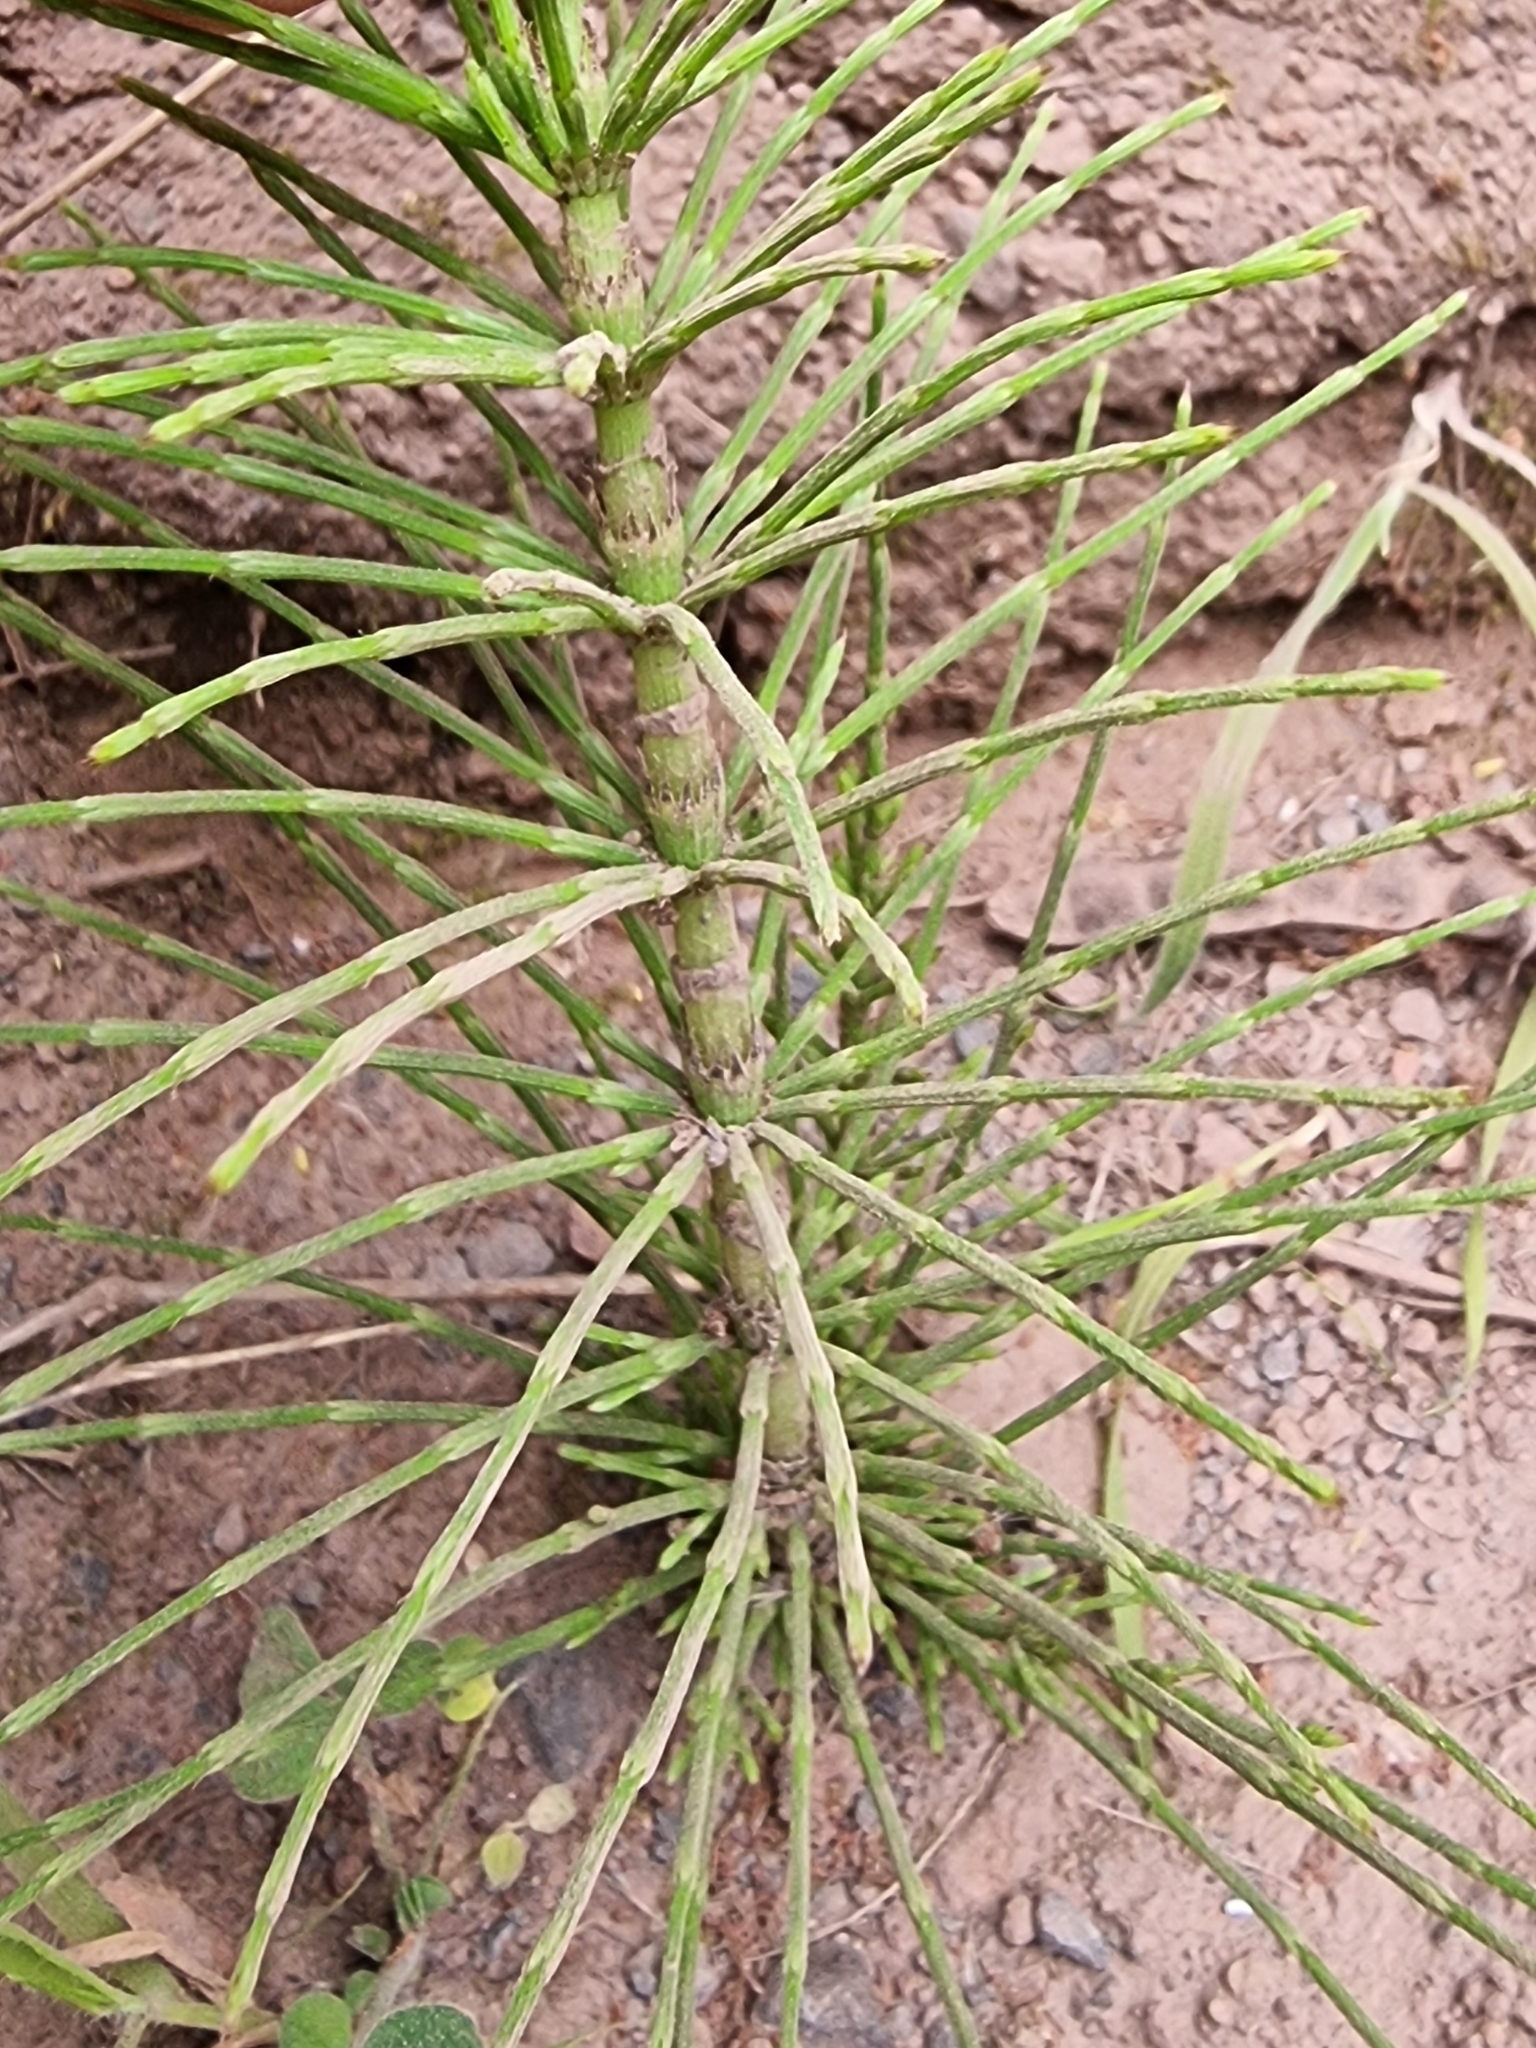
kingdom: Plantae
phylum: Tracheophyta
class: Polypodiopsida
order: Equisetales
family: Equisetaceae
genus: Equisetum
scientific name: Equisetum telmateia
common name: Great horsetail
